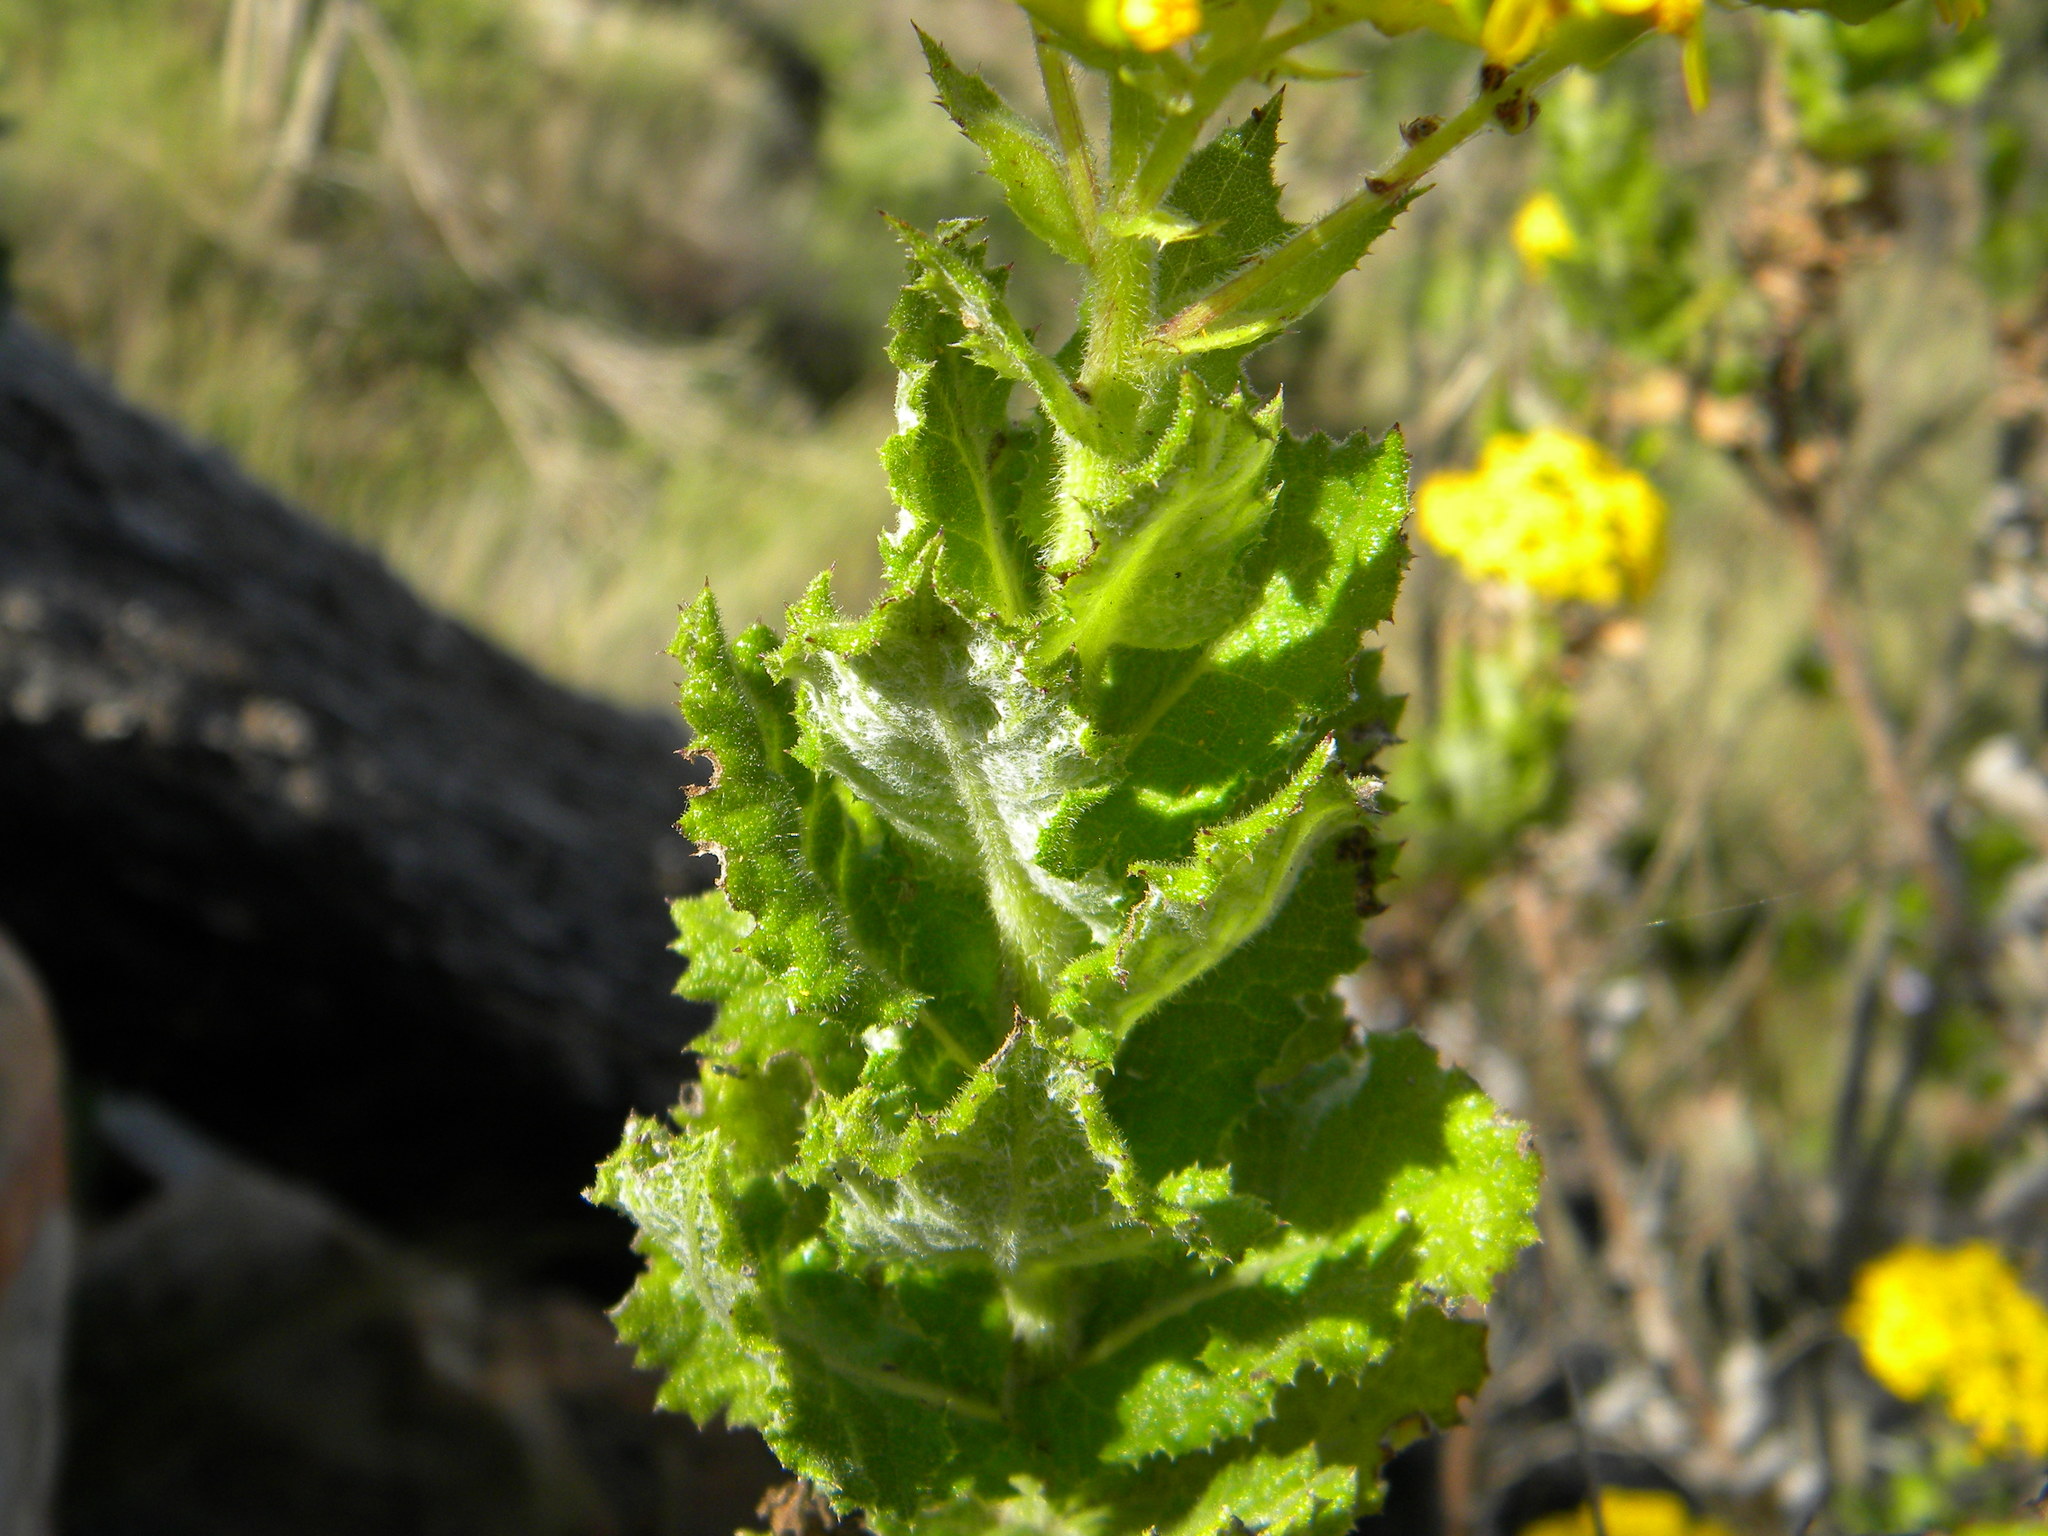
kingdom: Plantae
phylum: Tracheophyta
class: Magnoliopsida
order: Asterales
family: Asteraceae
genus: Senecio
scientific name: Senecio rigidus
